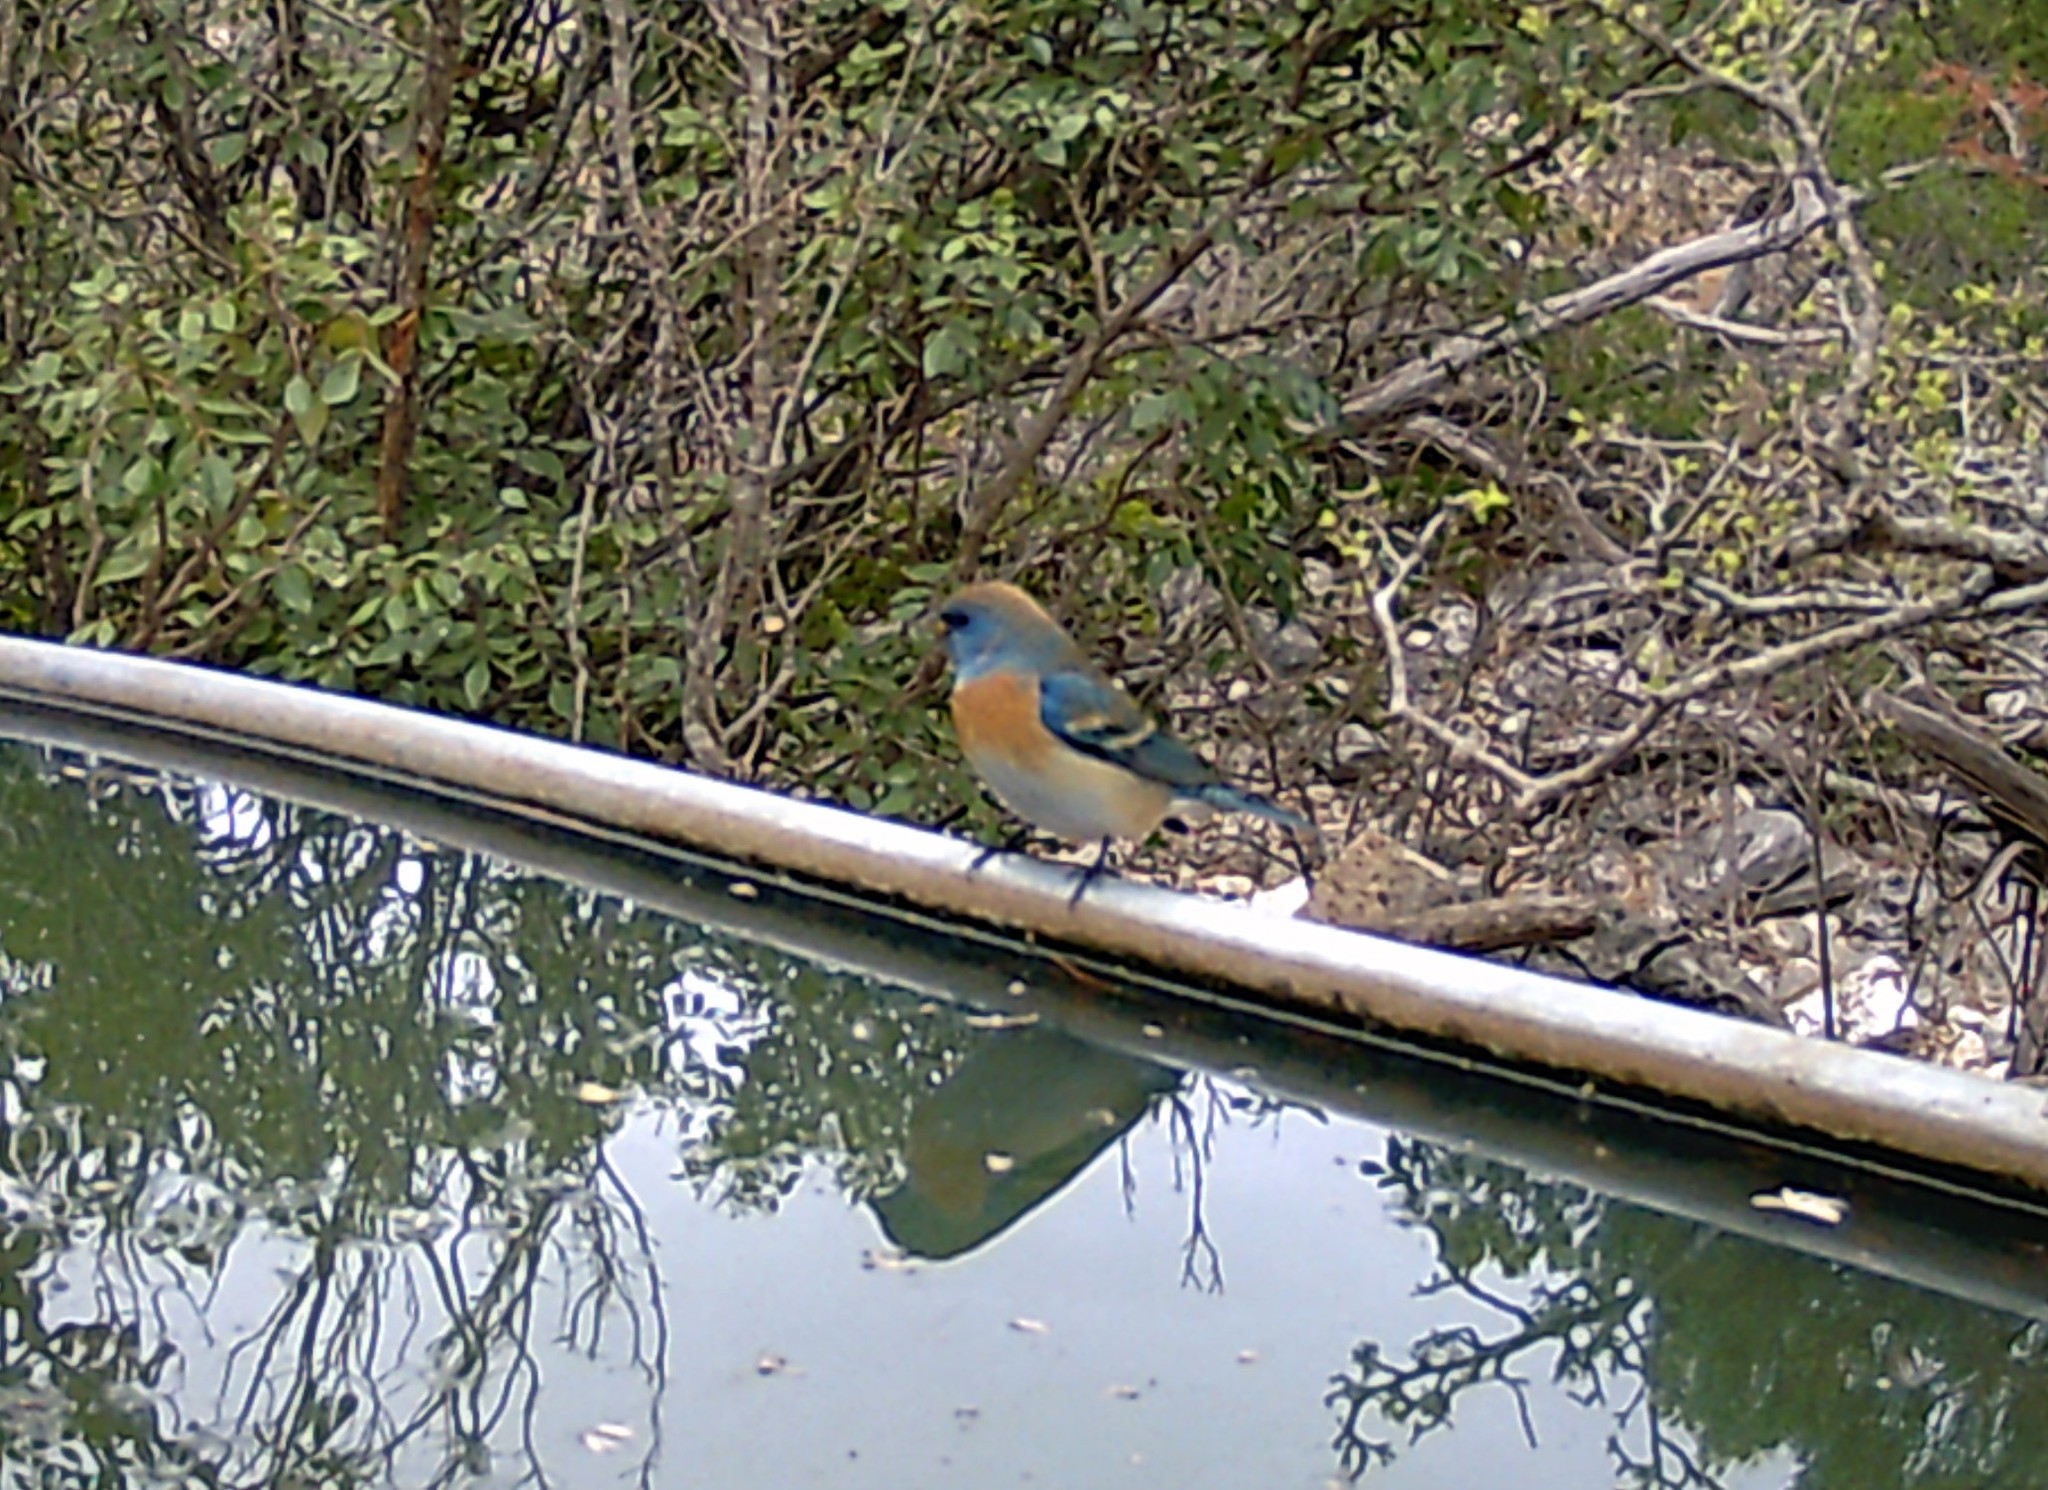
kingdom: Animalia
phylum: Chordata
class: Aves
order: Passeriformes
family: Cardinalidae
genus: Passerina
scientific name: Passerina amoena
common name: Lazuli bunting
